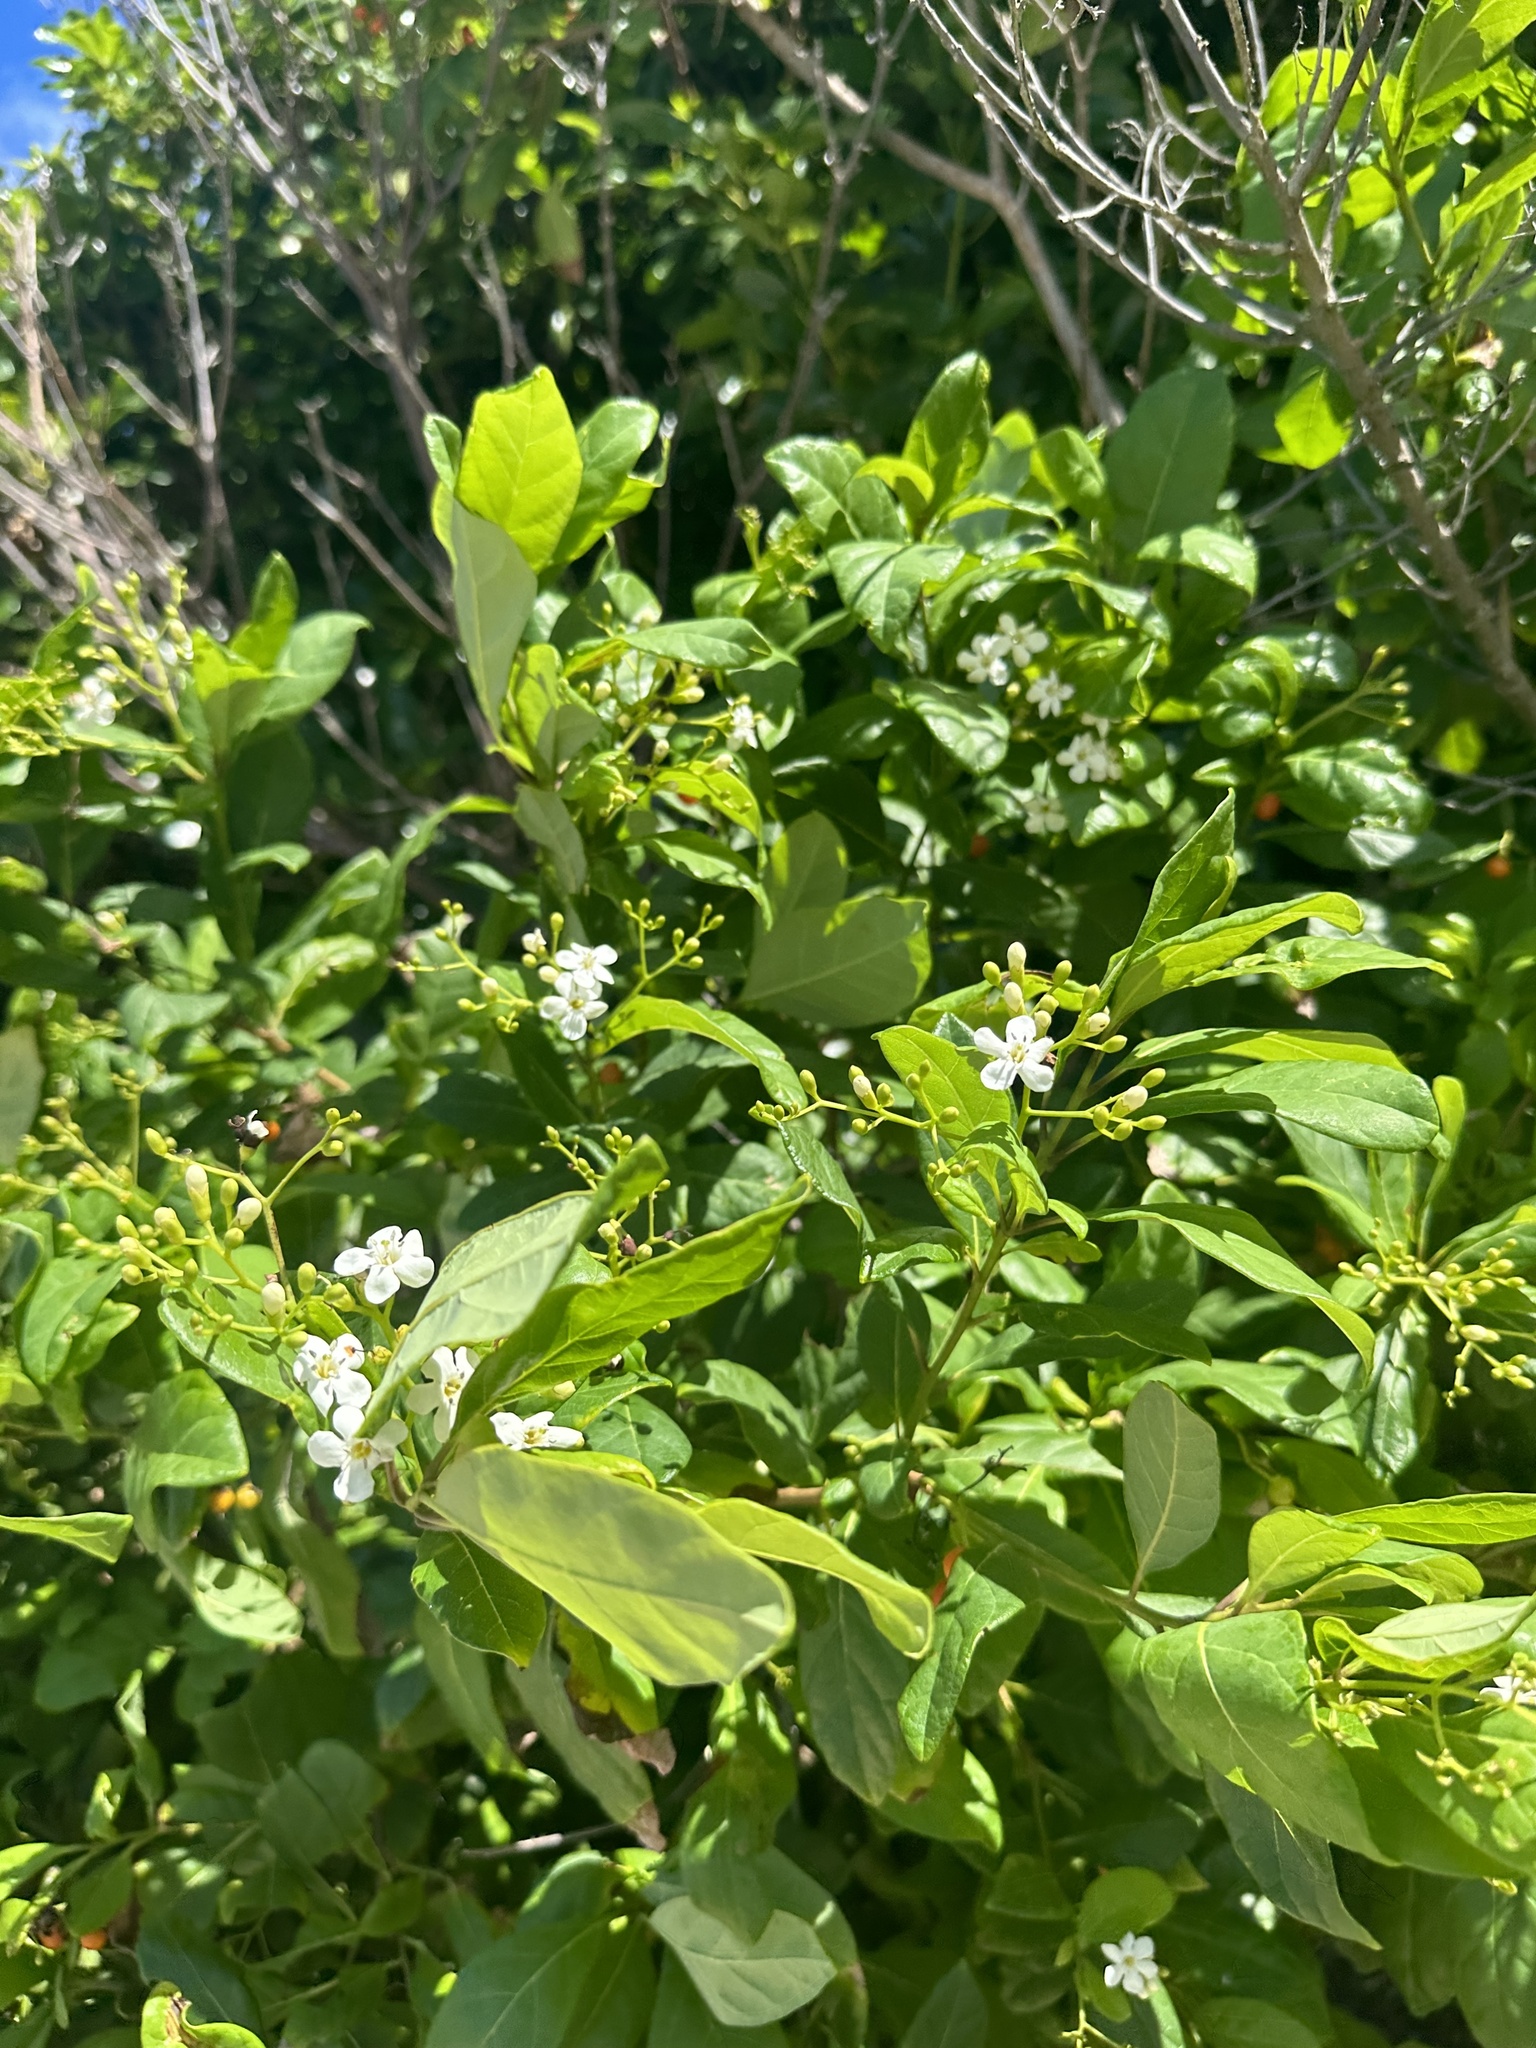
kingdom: Plantae
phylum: Tracheophyta
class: Magnoliopsida
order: Boraginales
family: Ehretiaceae
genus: Bourreria
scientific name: Bourreria succulenta
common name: Cherry
